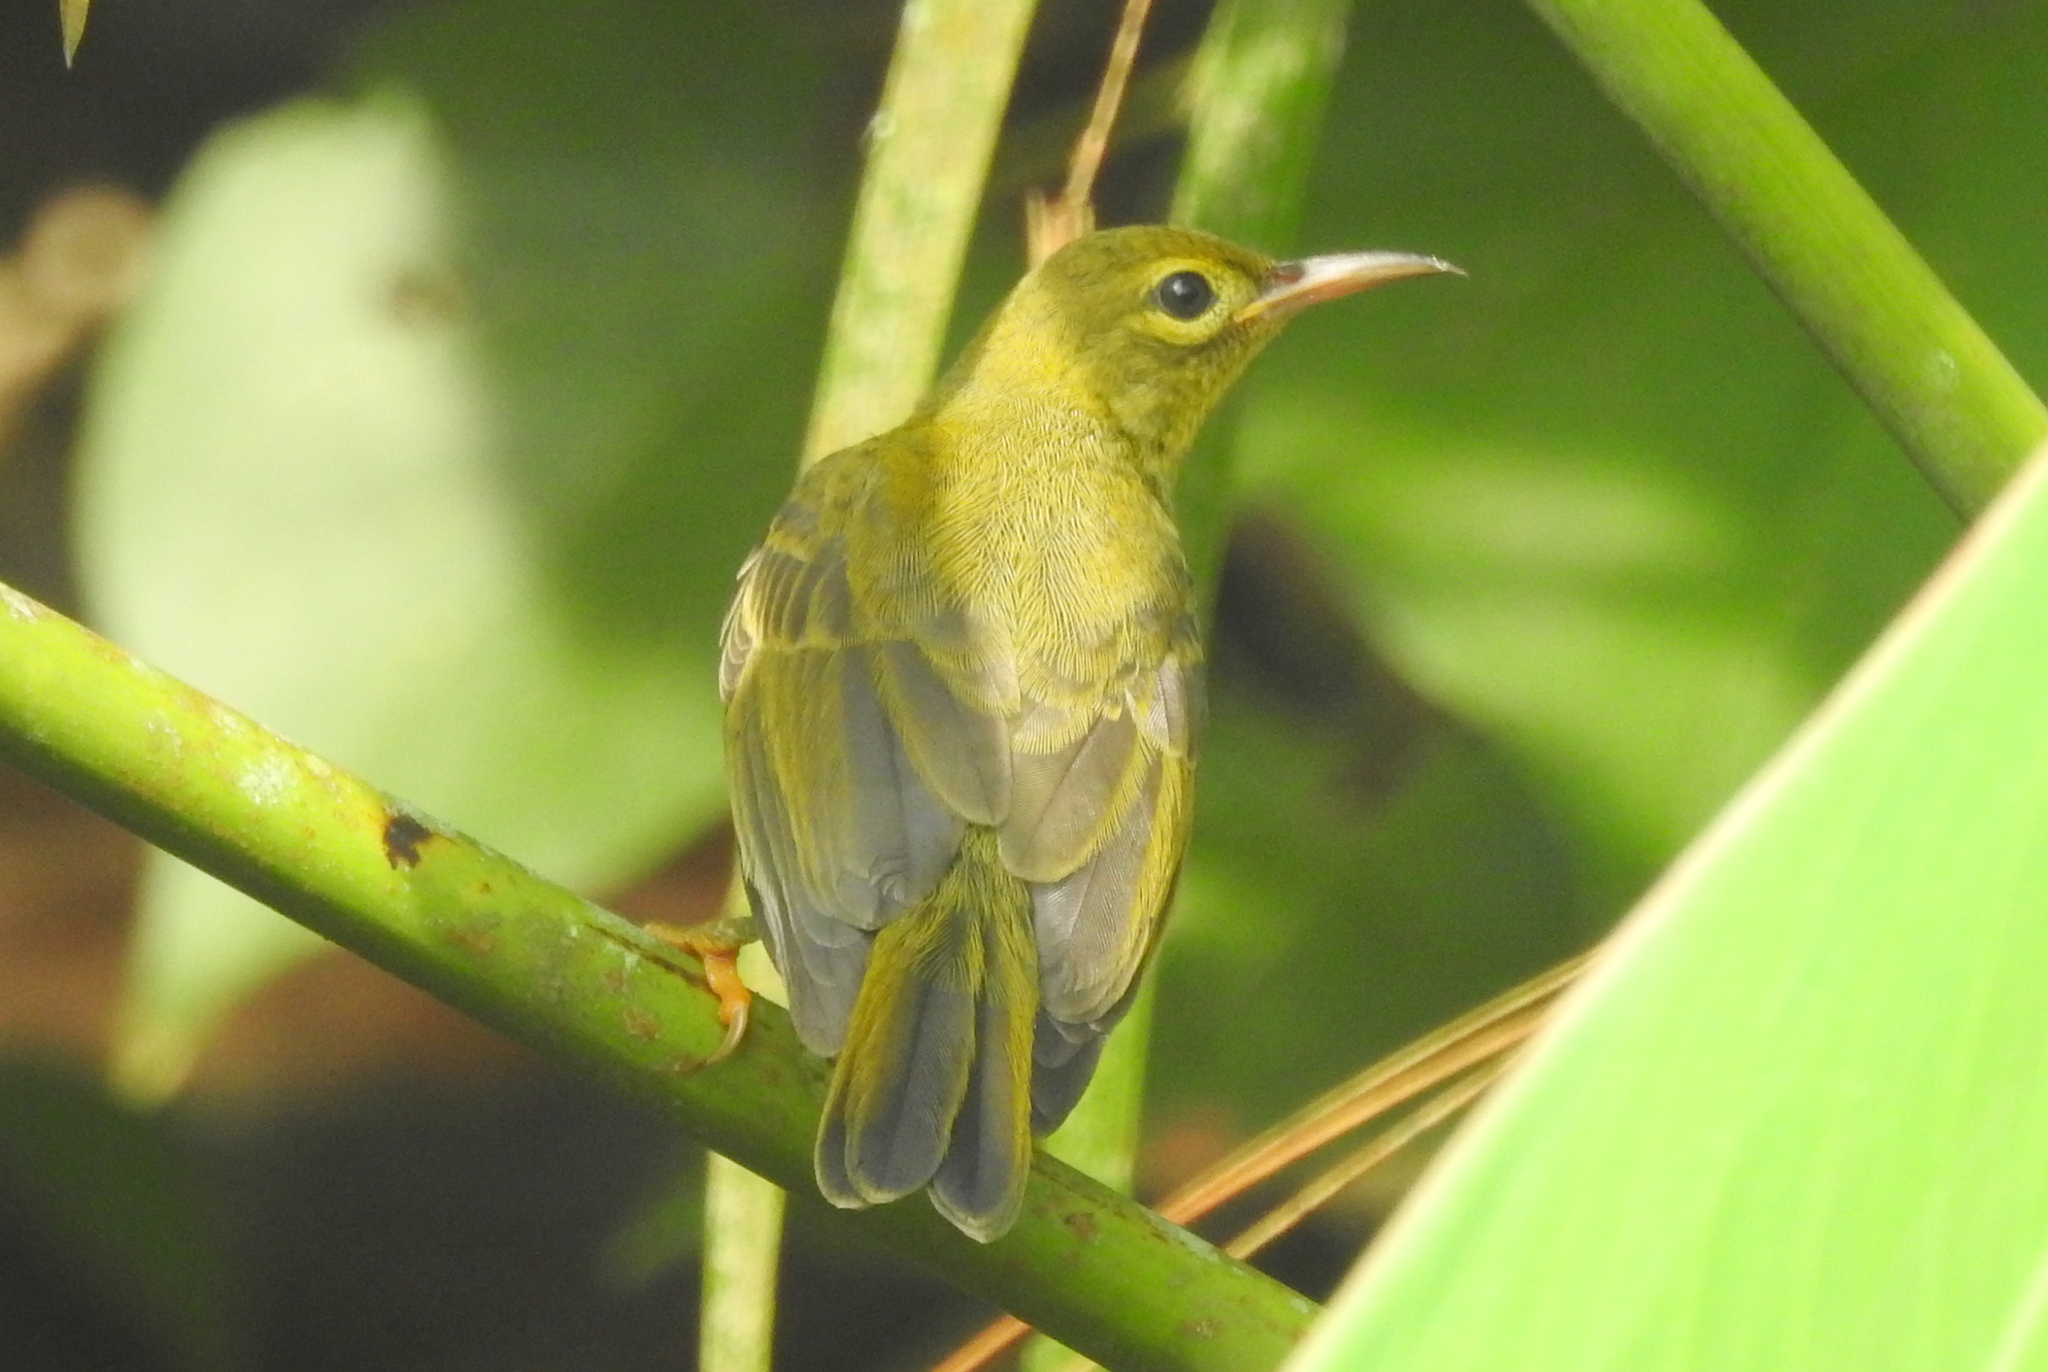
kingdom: Animalia
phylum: Chordata
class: Aves
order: Passeriformes
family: Nectariniidae
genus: Anthreptes
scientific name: Anthreptes malacensis
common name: Brown-throated sunbird
